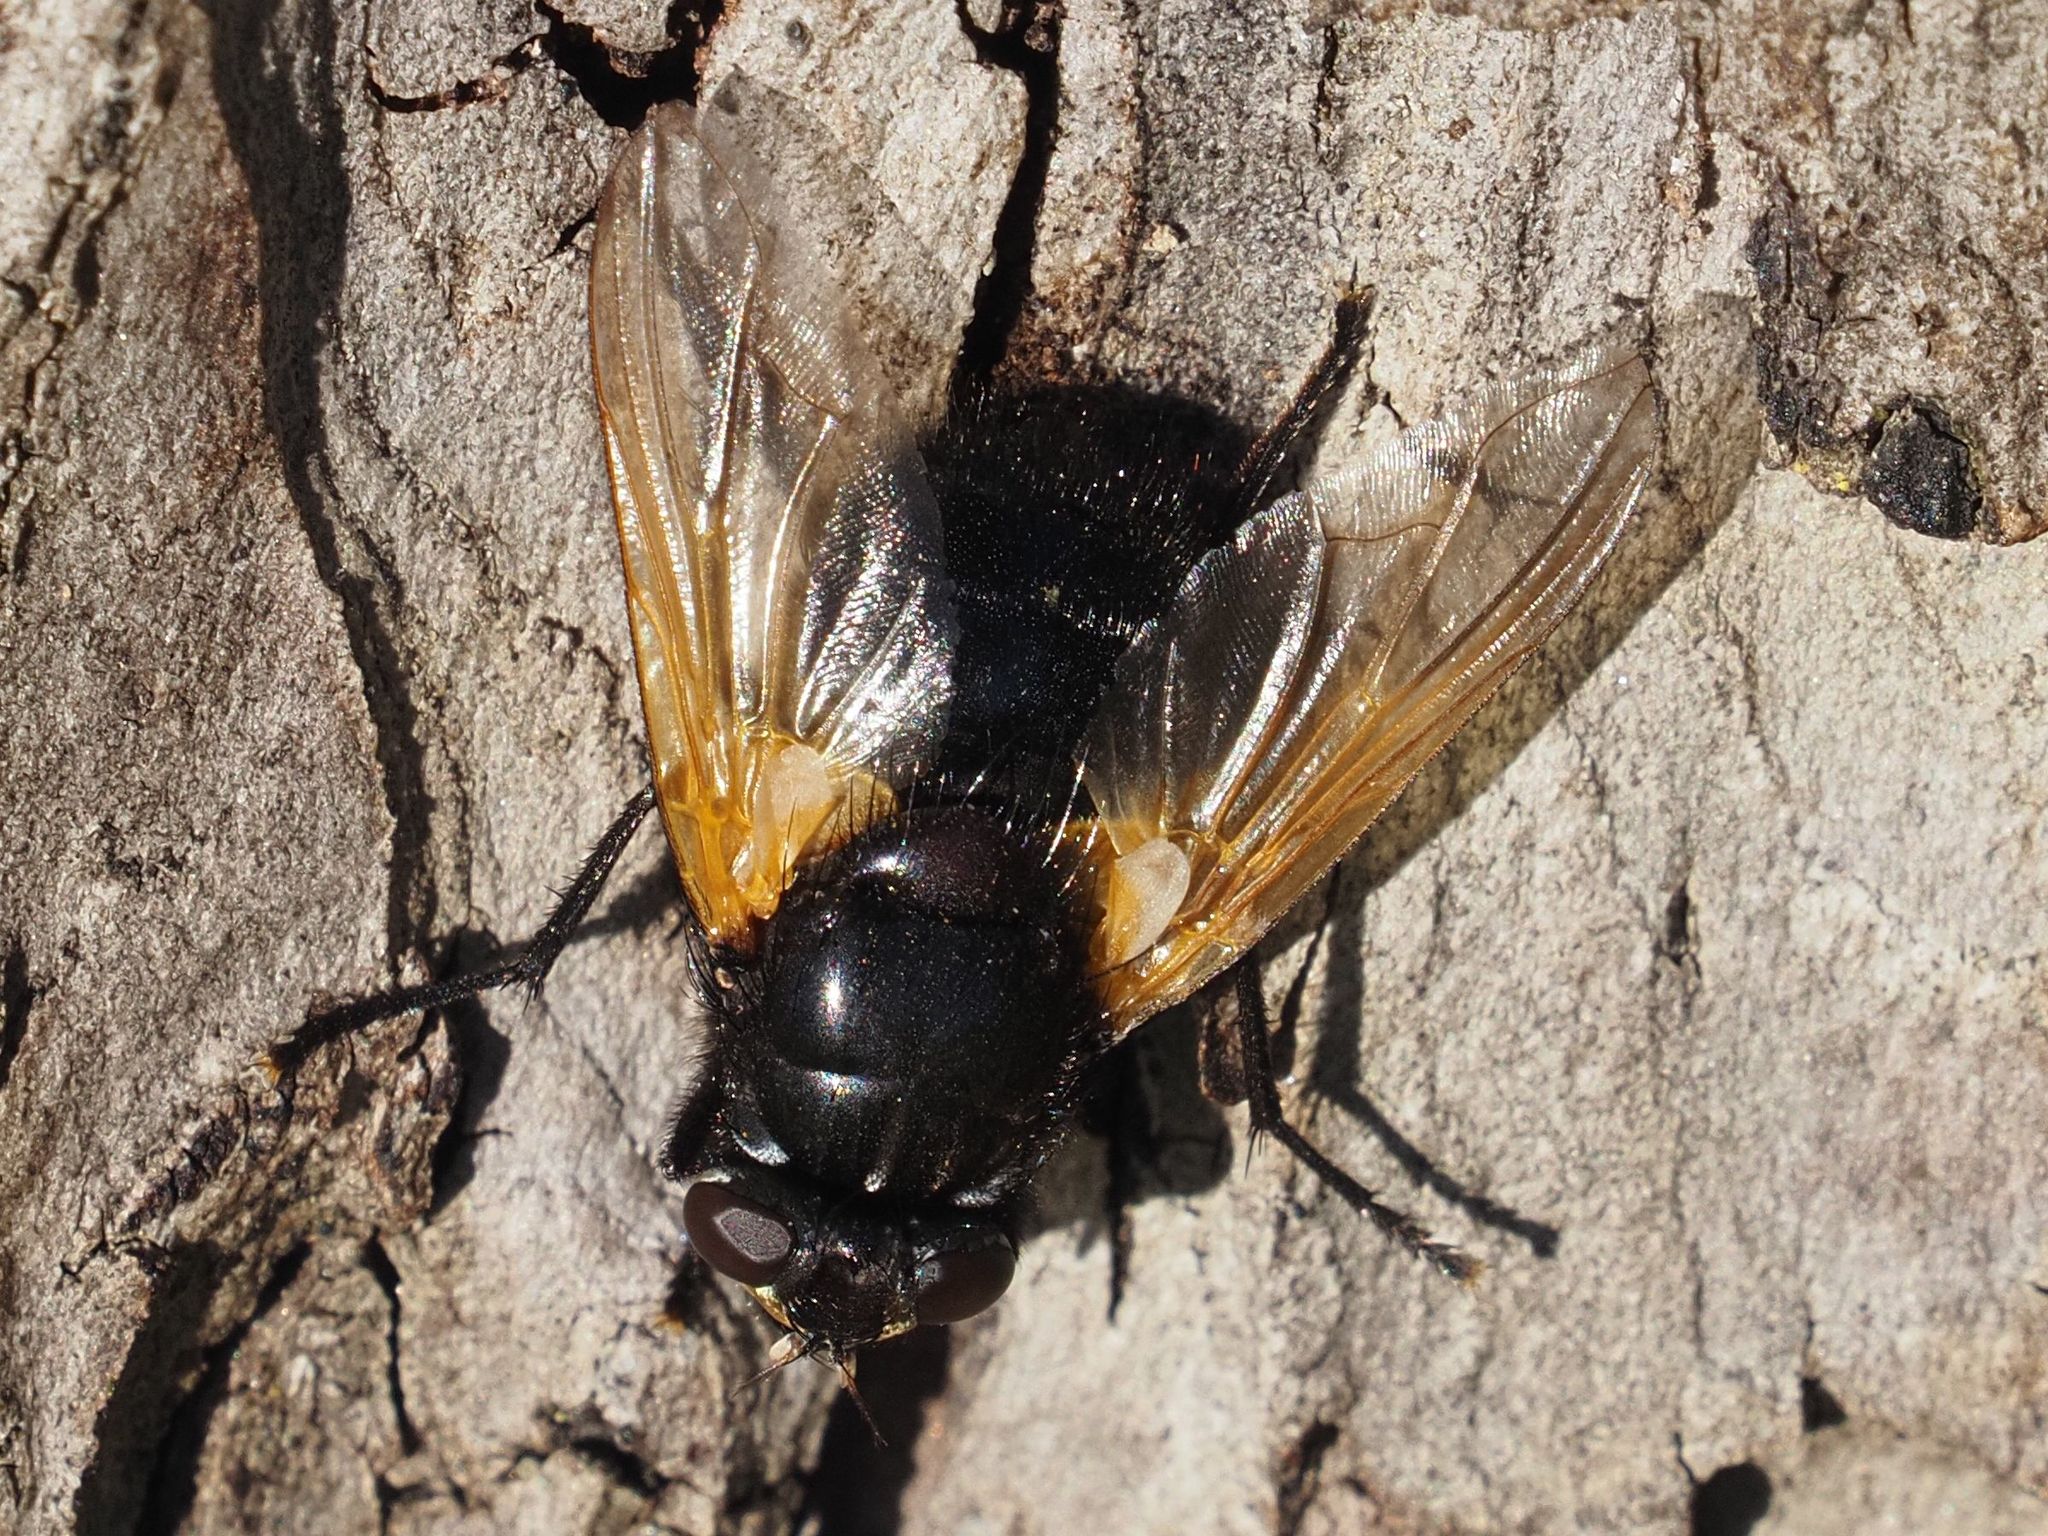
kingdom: Animalia
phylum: Arthropoda
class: Insecta
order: Diptera
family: Muscidae
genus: Mesembrina
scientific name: Mesembrina meridiana
